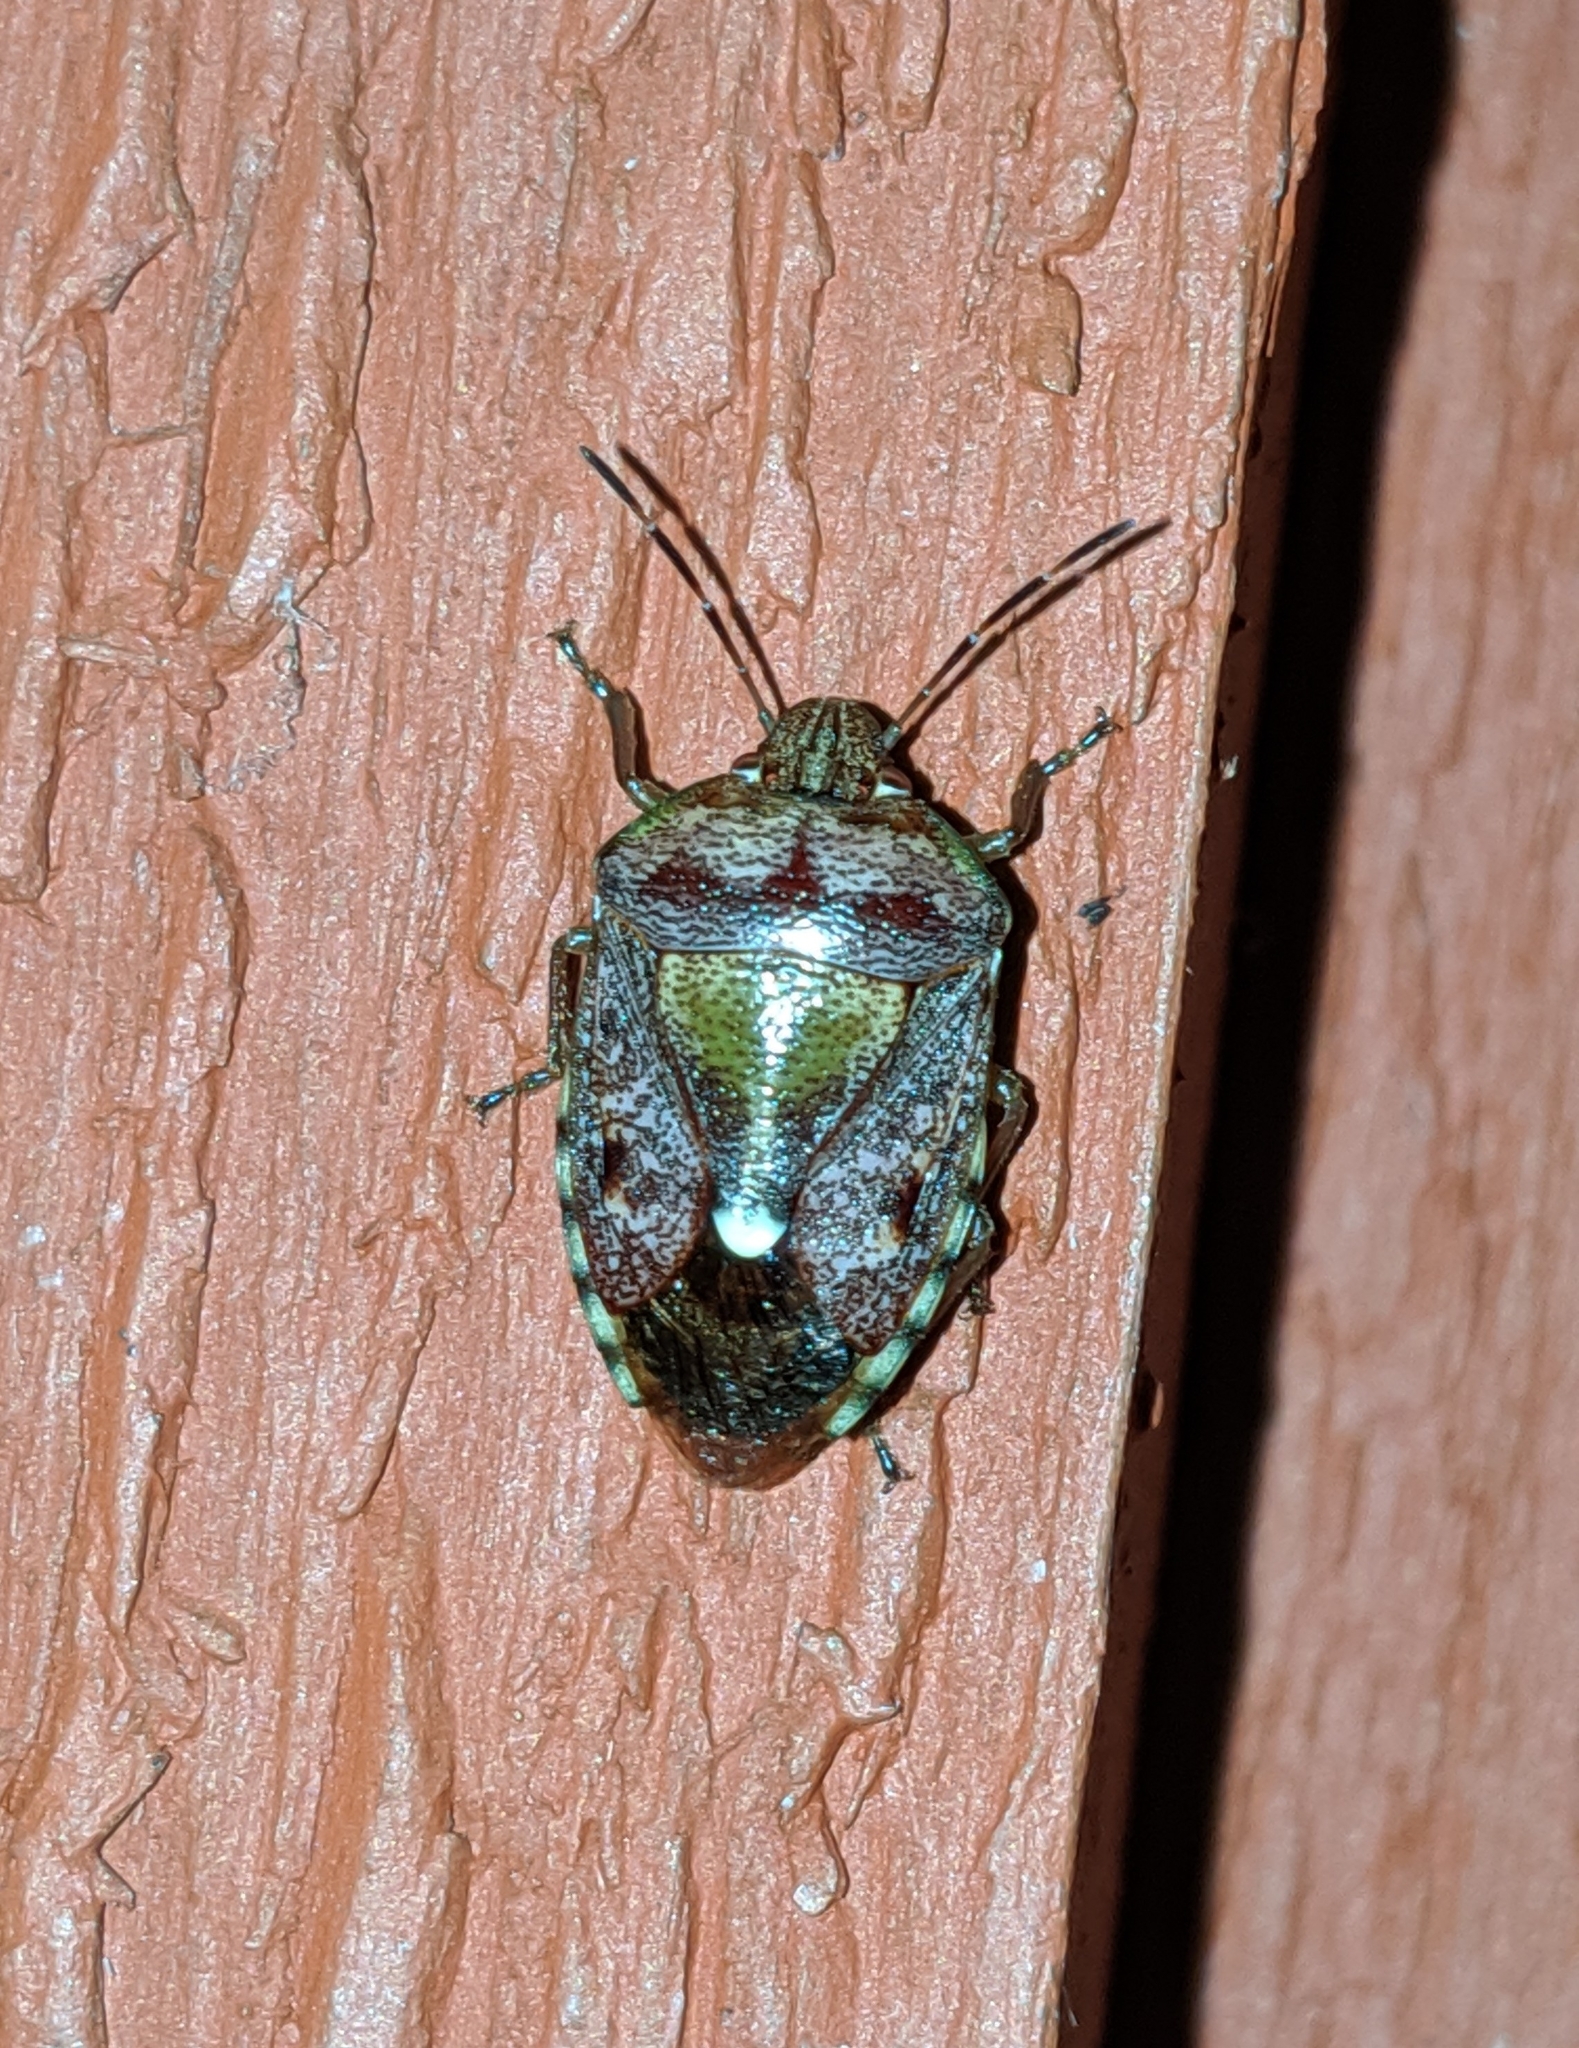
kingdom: Animalia
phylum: Arthropoda
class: Insecta
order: Hemiptera
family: Pentatomidae
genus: Banasa
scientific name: Banasa sordida
